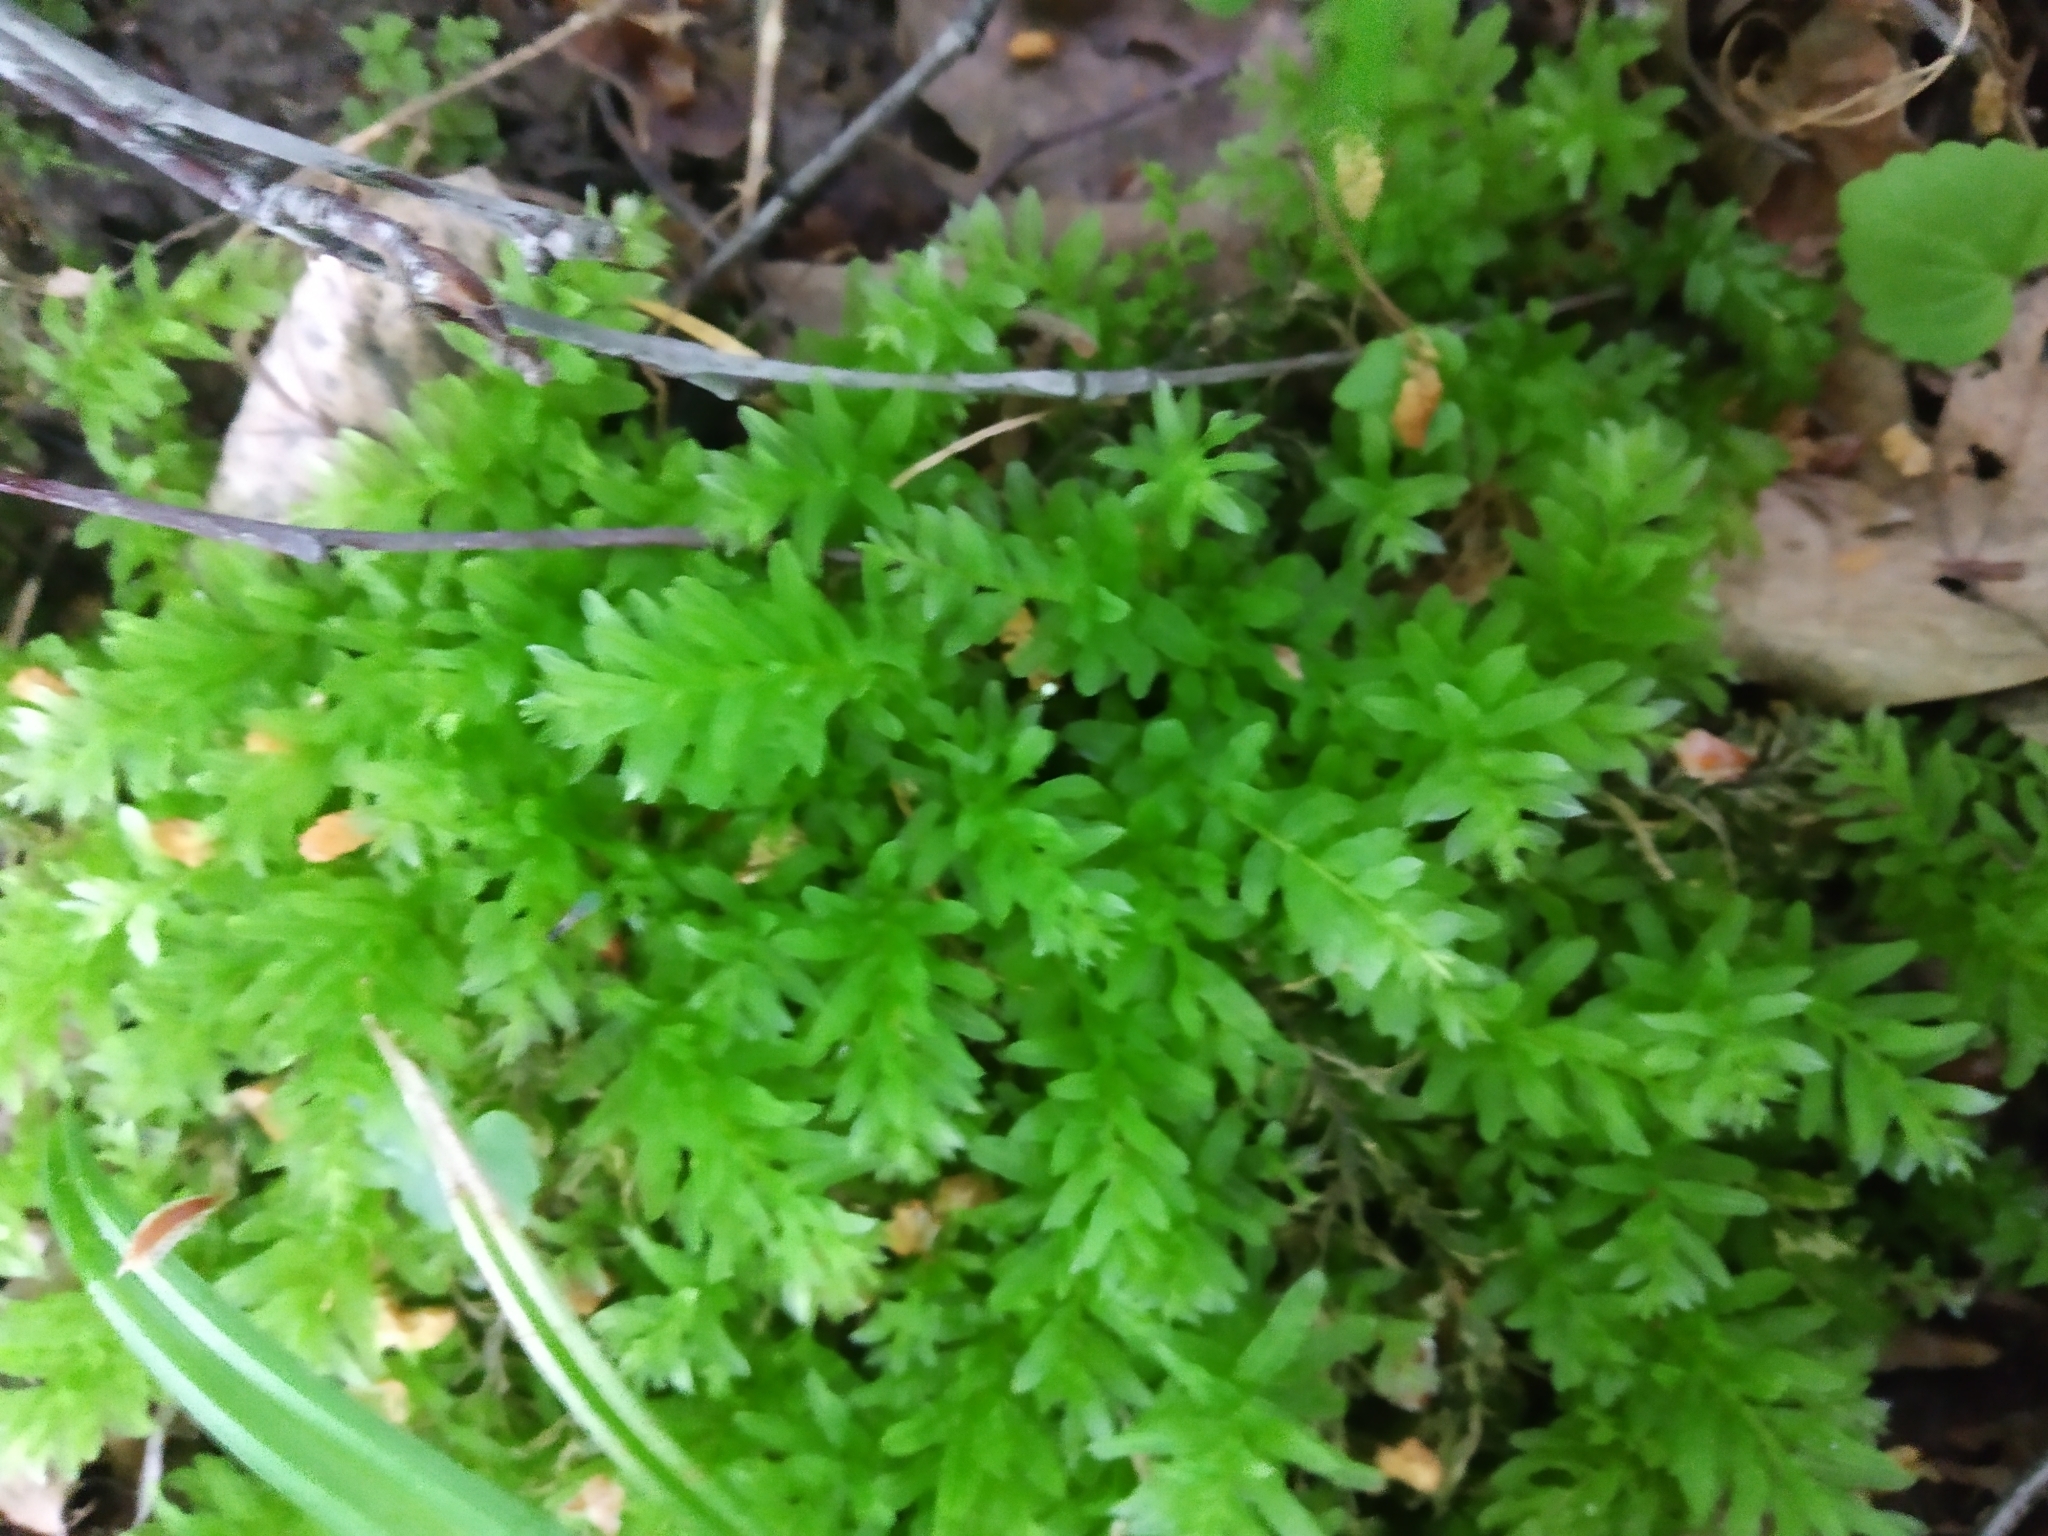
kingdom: Plantae
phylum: Bryophyta
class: Bryopsida
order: Bryales
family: Mniaceae
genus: Plagiomnium
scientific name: Plagiomnium undulatum
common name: Hart's-tongue thyme-moss
